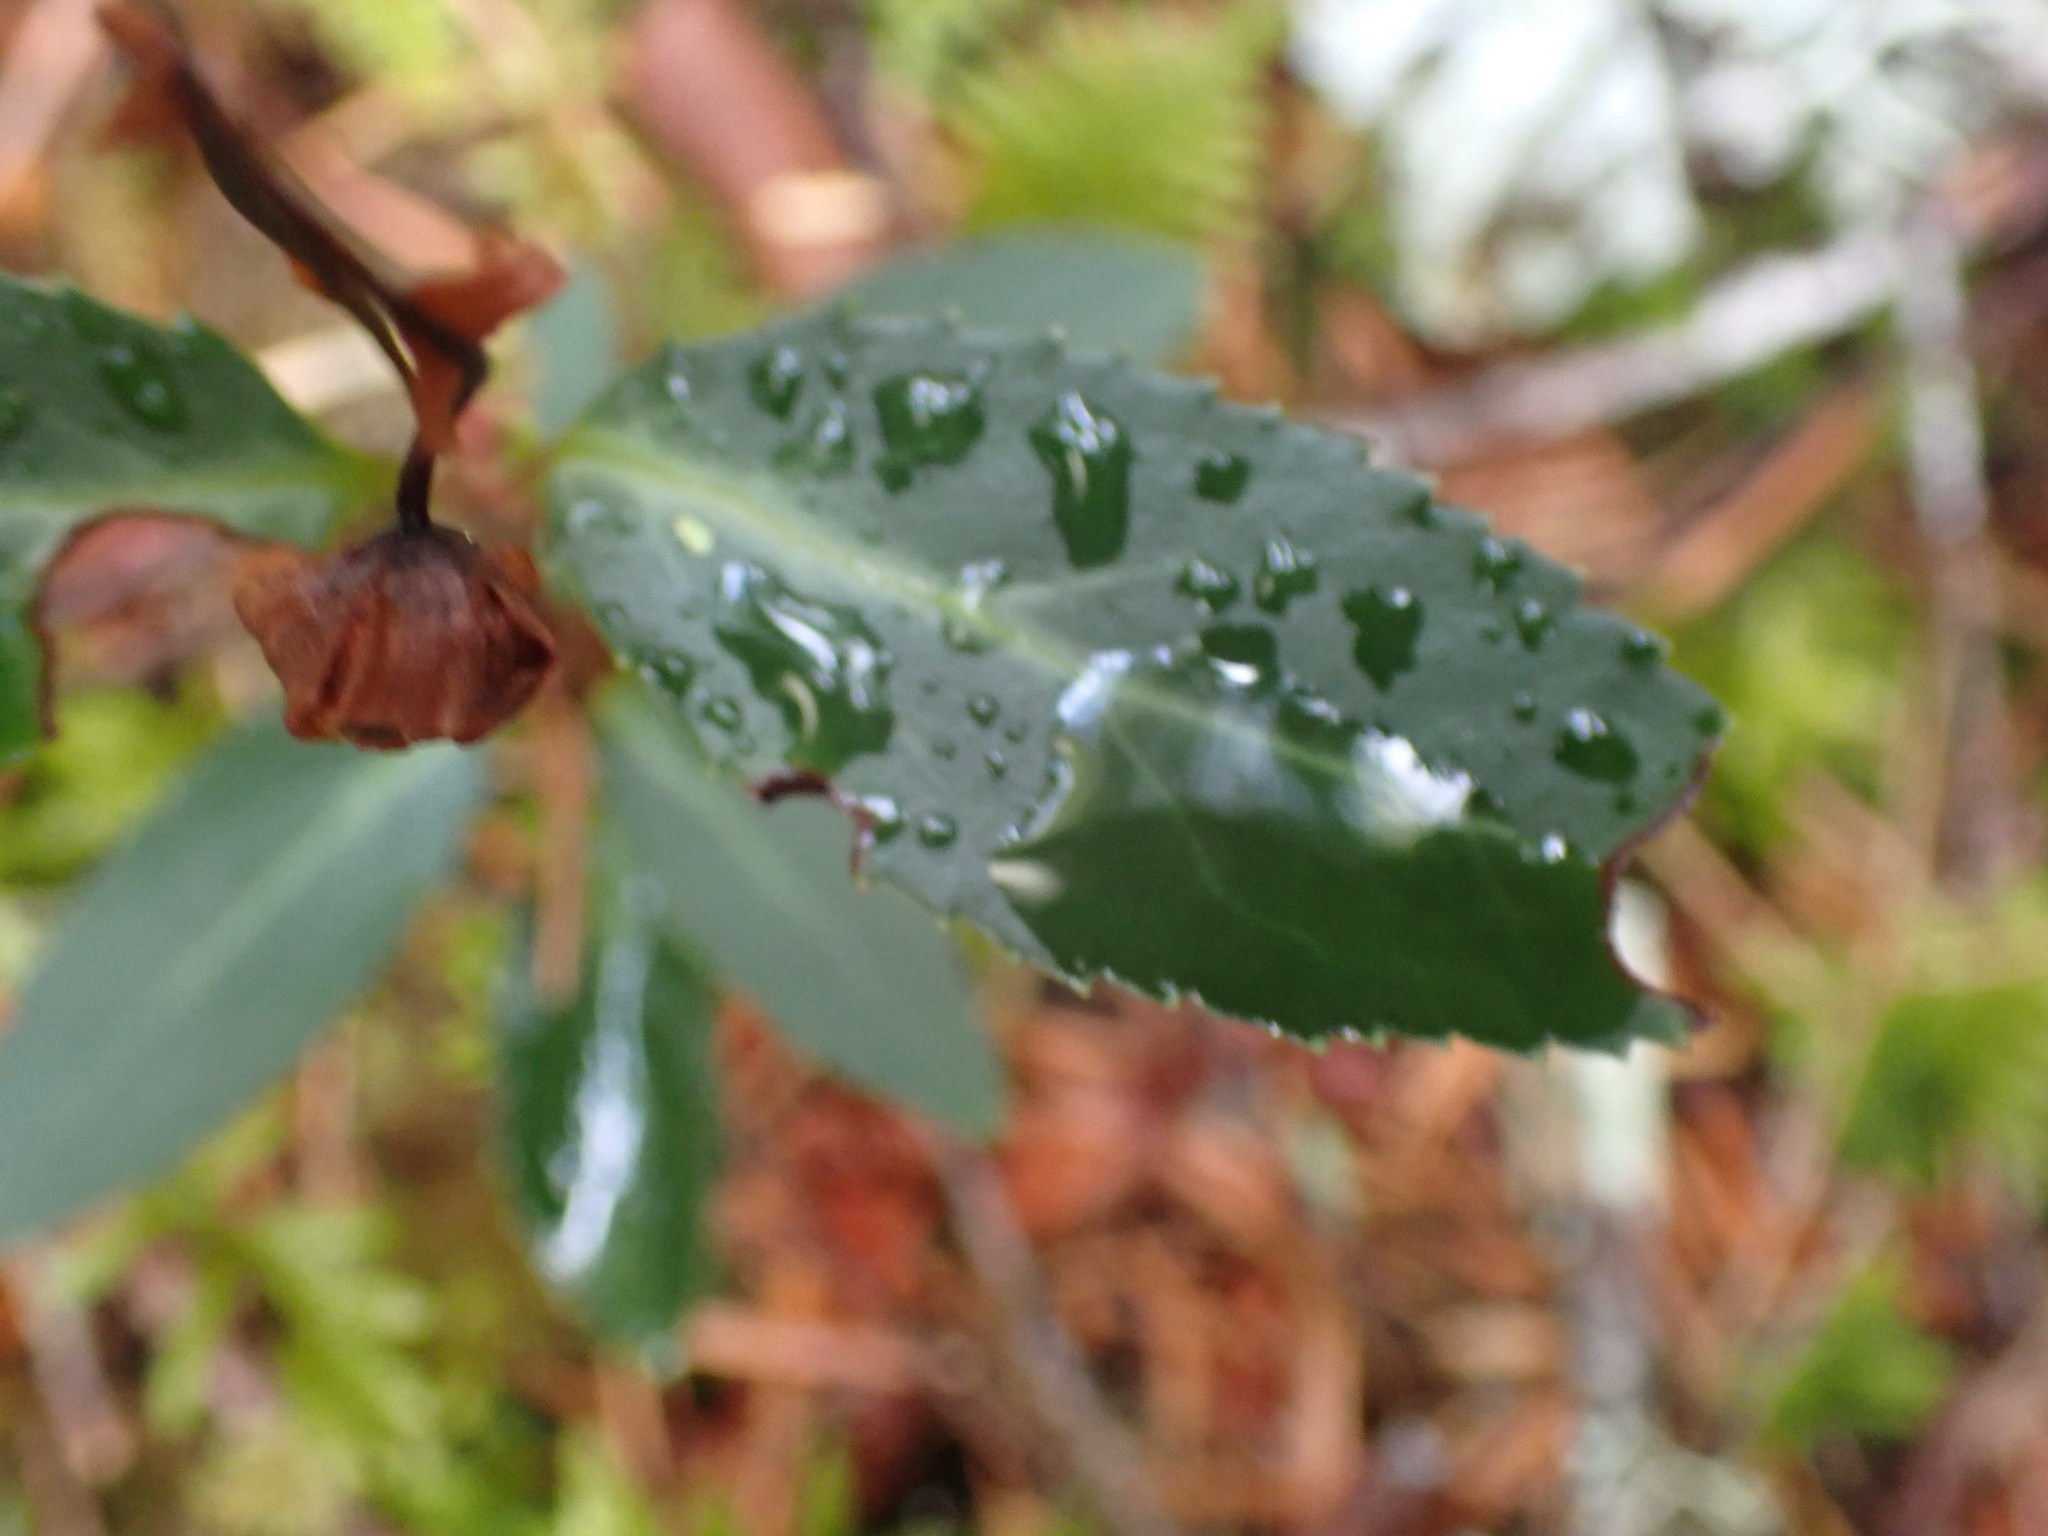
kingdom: Plantae
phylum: Tracheophyta
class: Magnoliopsida
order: Ericales
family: Ericaceae
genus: Chimaphila
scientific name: Chimaphila menziesii
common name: Menzies' pipsissewa
